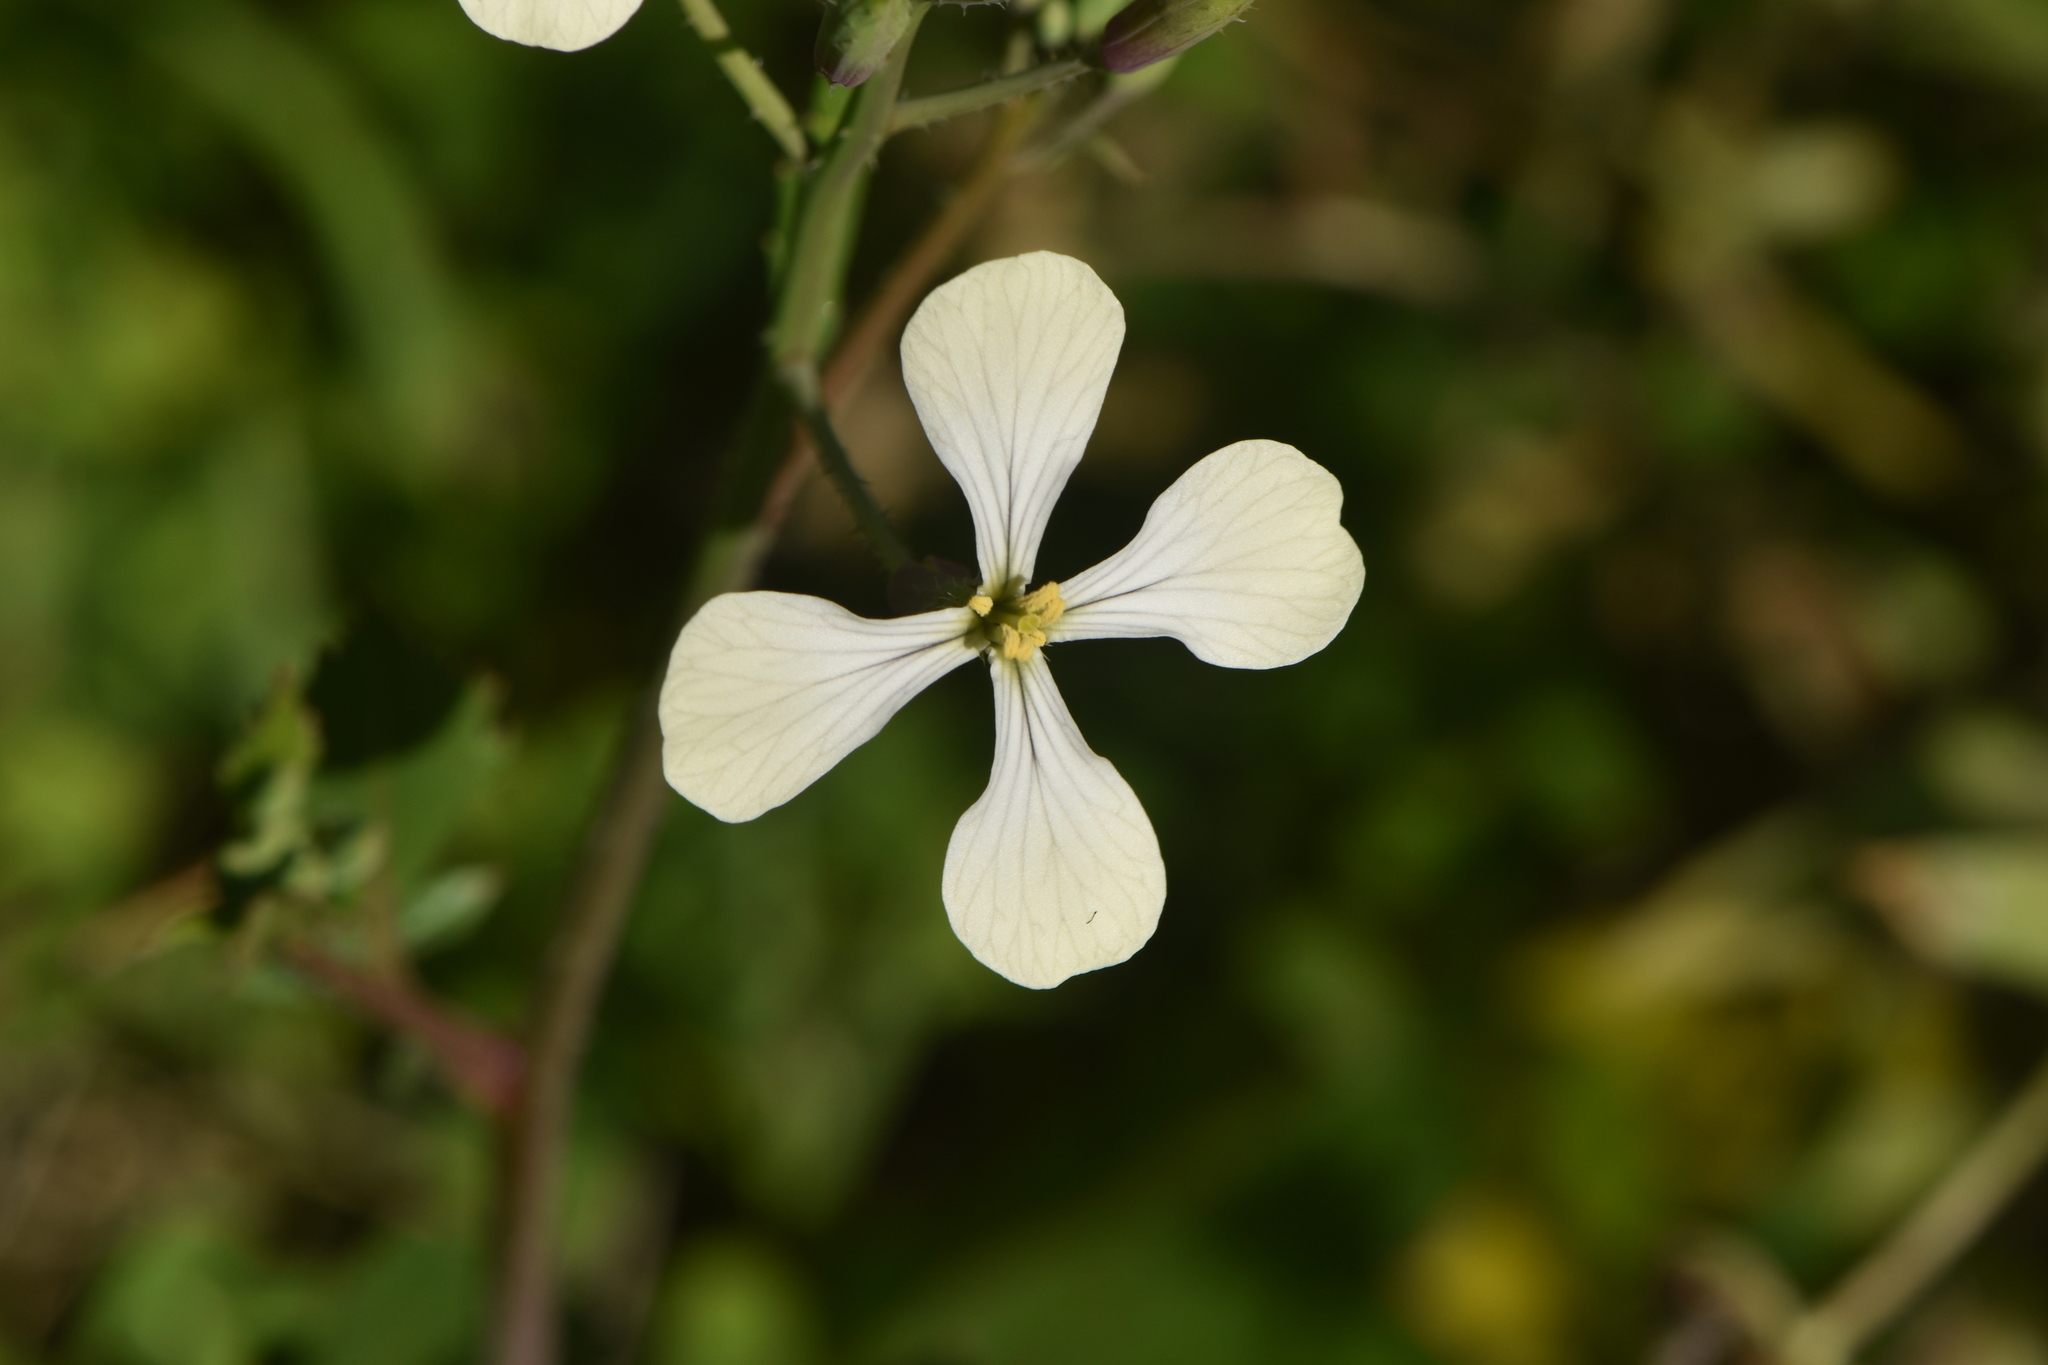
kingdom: Plantae
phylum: Tracheophyta
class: Magnoliopsida
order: Brassicales
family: Brassicaceae
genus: Raphanus
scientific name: Raphanus raphanistrum
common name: Wild radish
